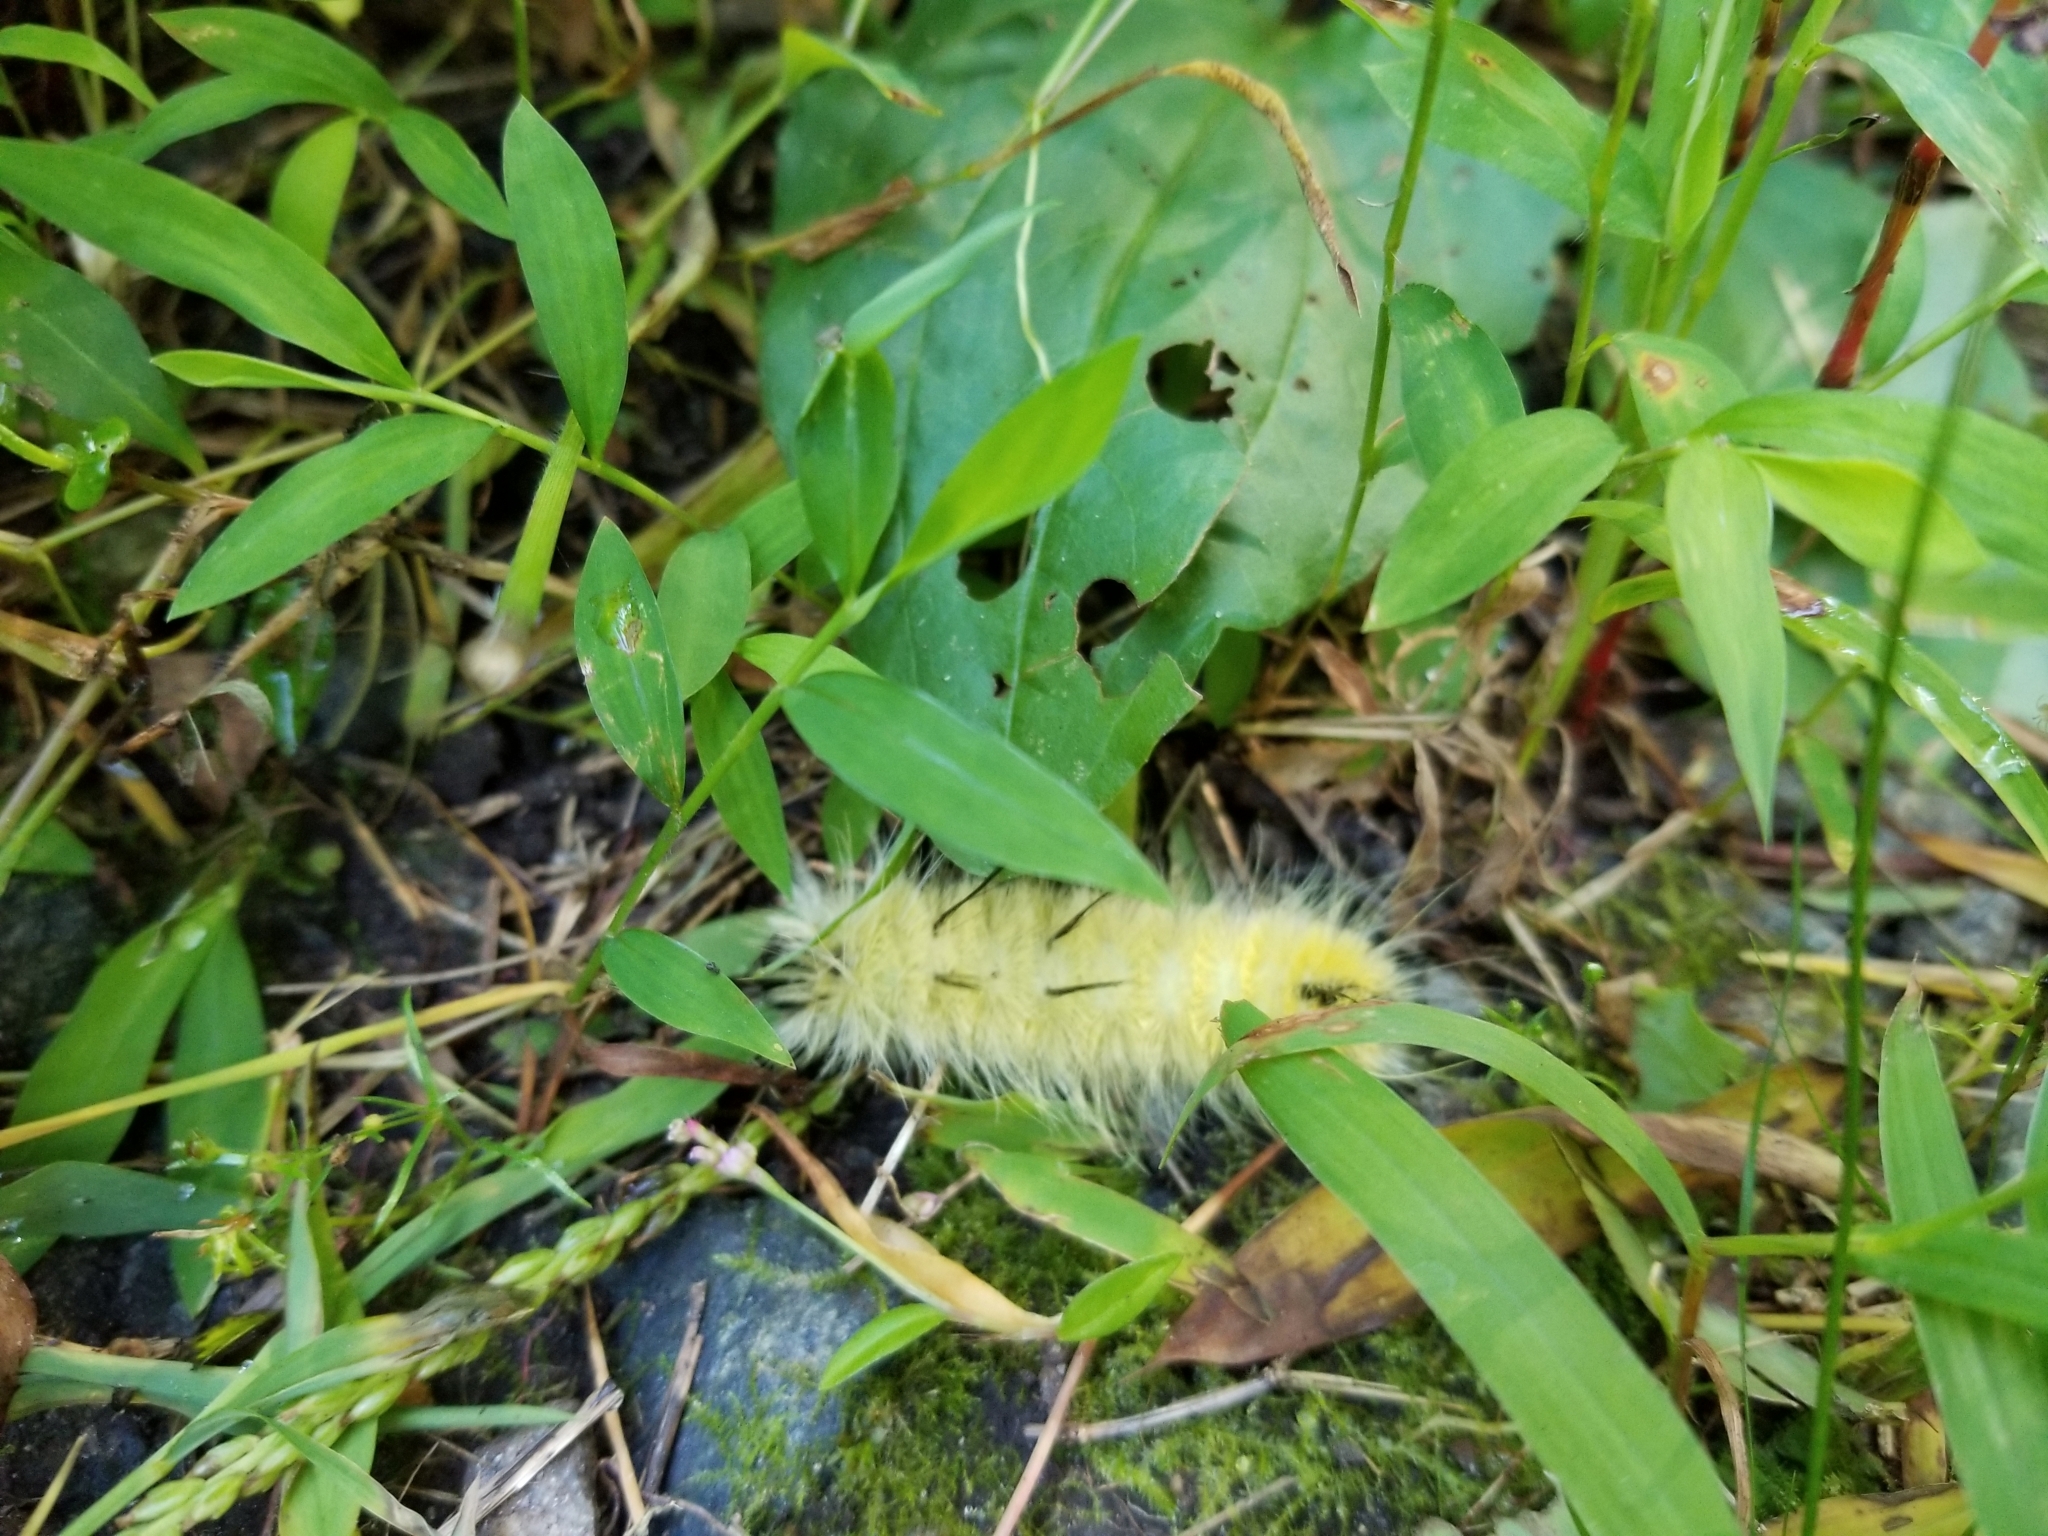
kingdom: Animalia
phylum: Arthropoda
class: Insecta
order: Lepidoptera
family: Noctuidae
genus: Acronicta
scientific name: Acronicta americana
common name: American dagger
